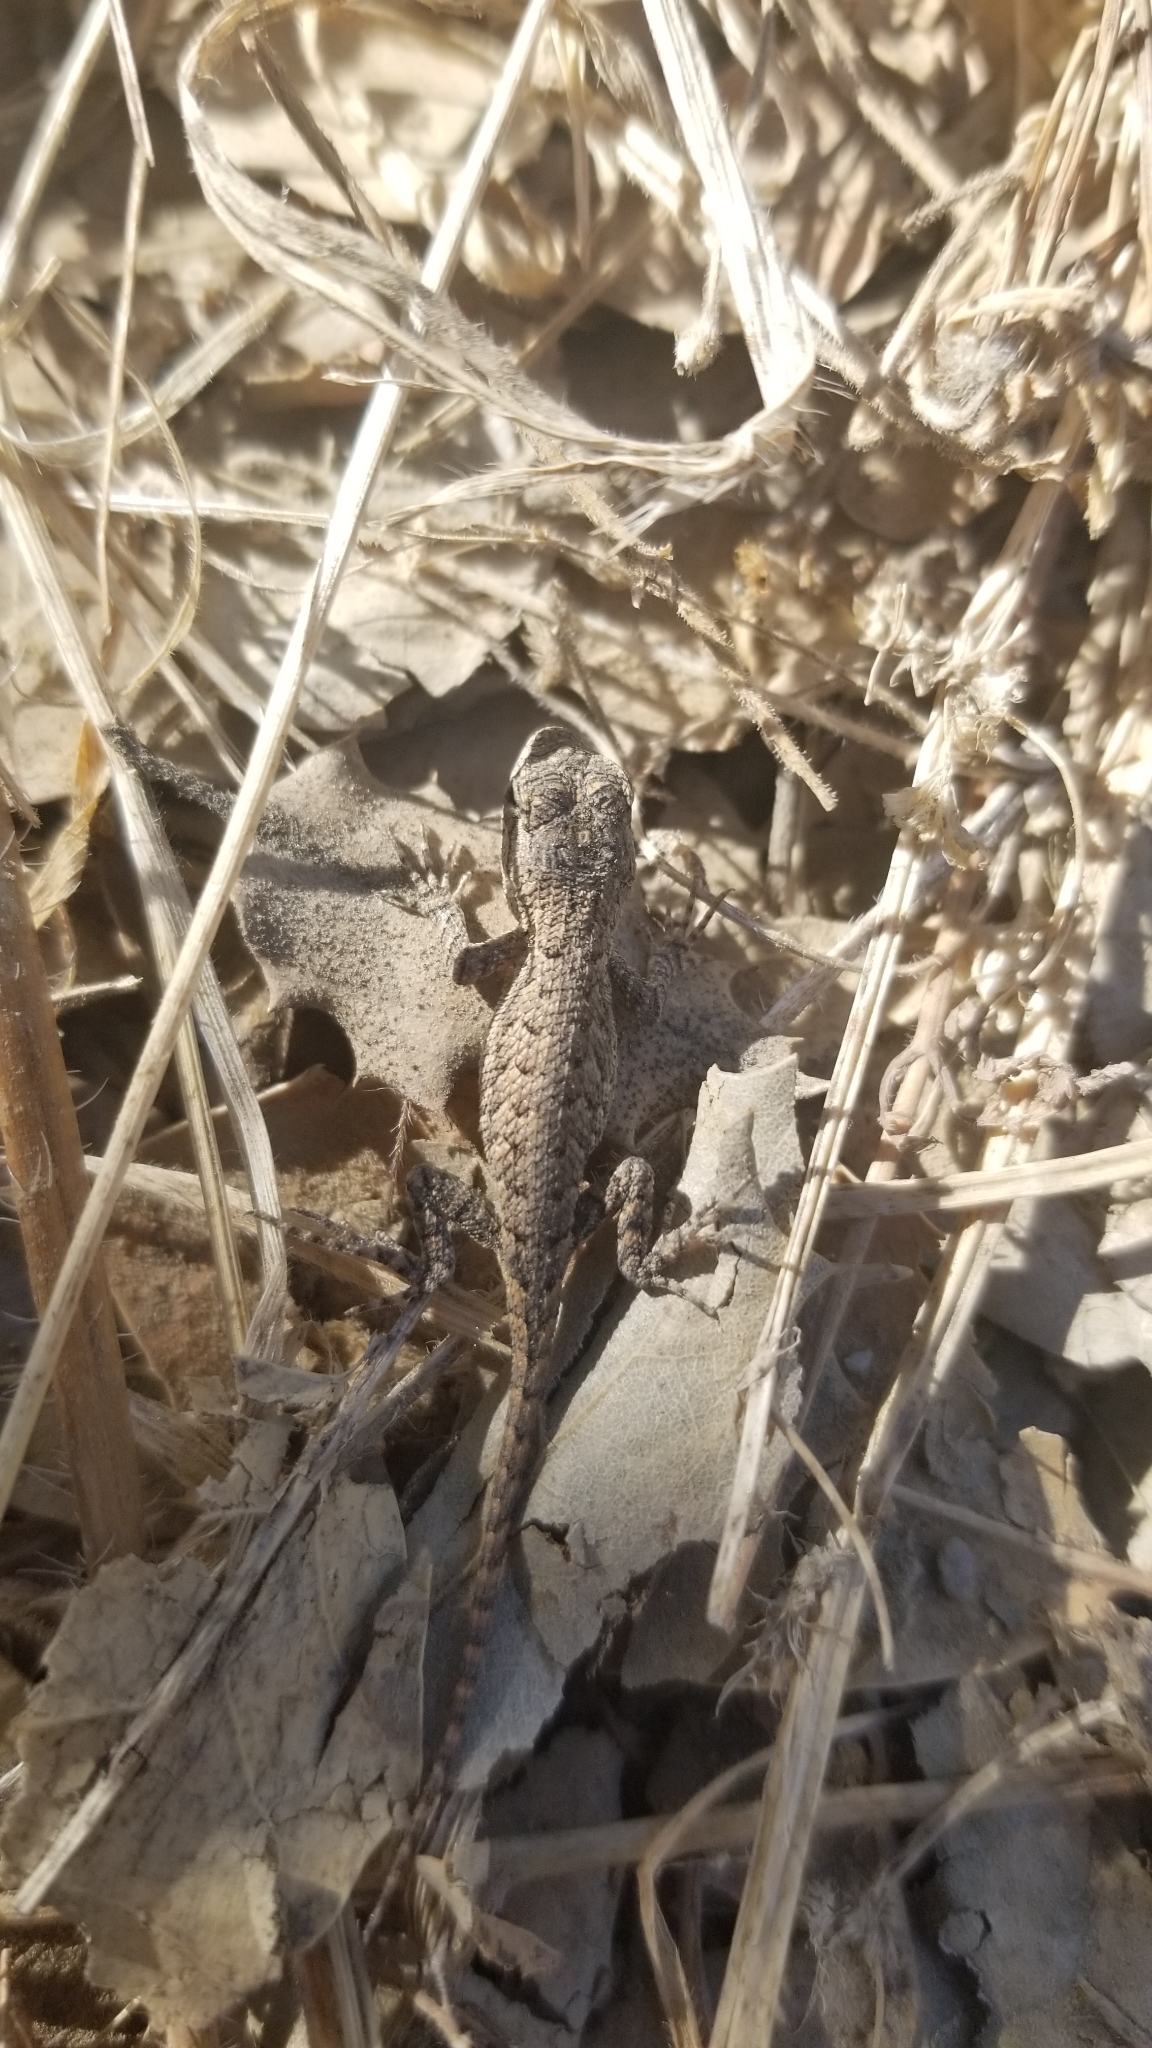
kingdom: Animalia
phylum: Chordata
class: Squamata
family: Phrynosomatidae
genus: Sceloporus
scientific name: Sceloporus occidentalis
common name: Western fence lizard
